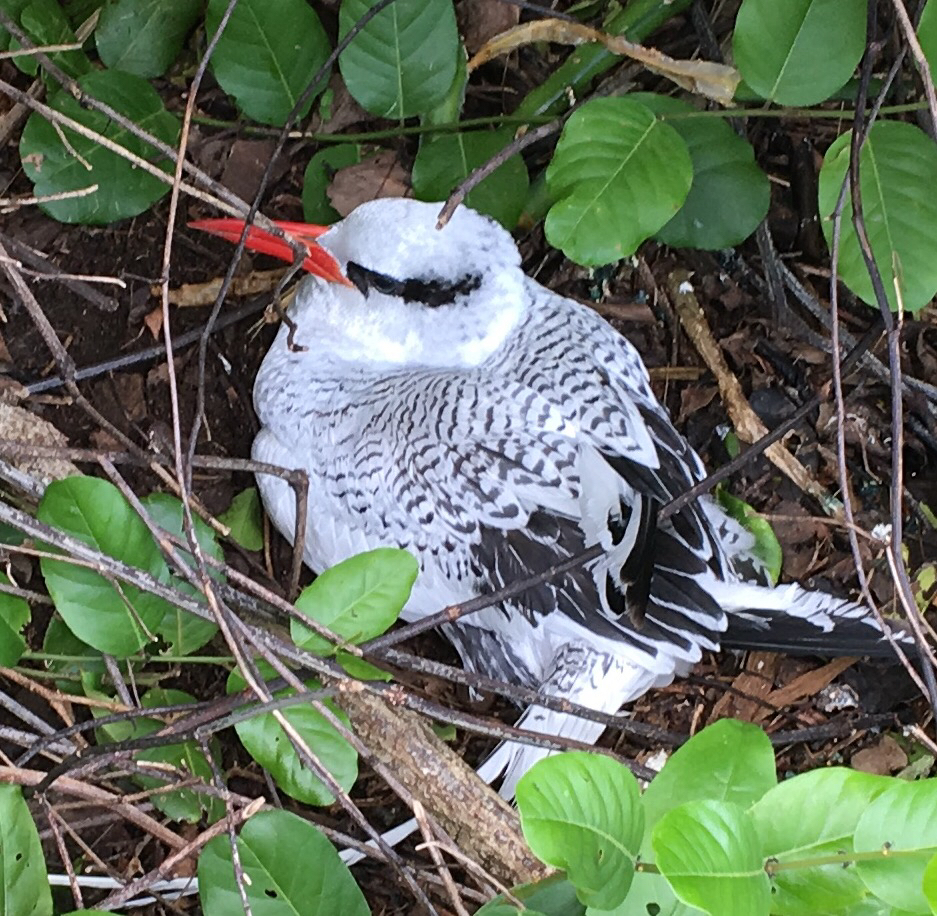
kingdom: Animalia
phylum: Chordata
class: Aves
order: Phaethontiformes
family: Phaethontidae
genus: Phaethon
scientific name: Phaethon aethereus
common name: Red-billed tropicbird
